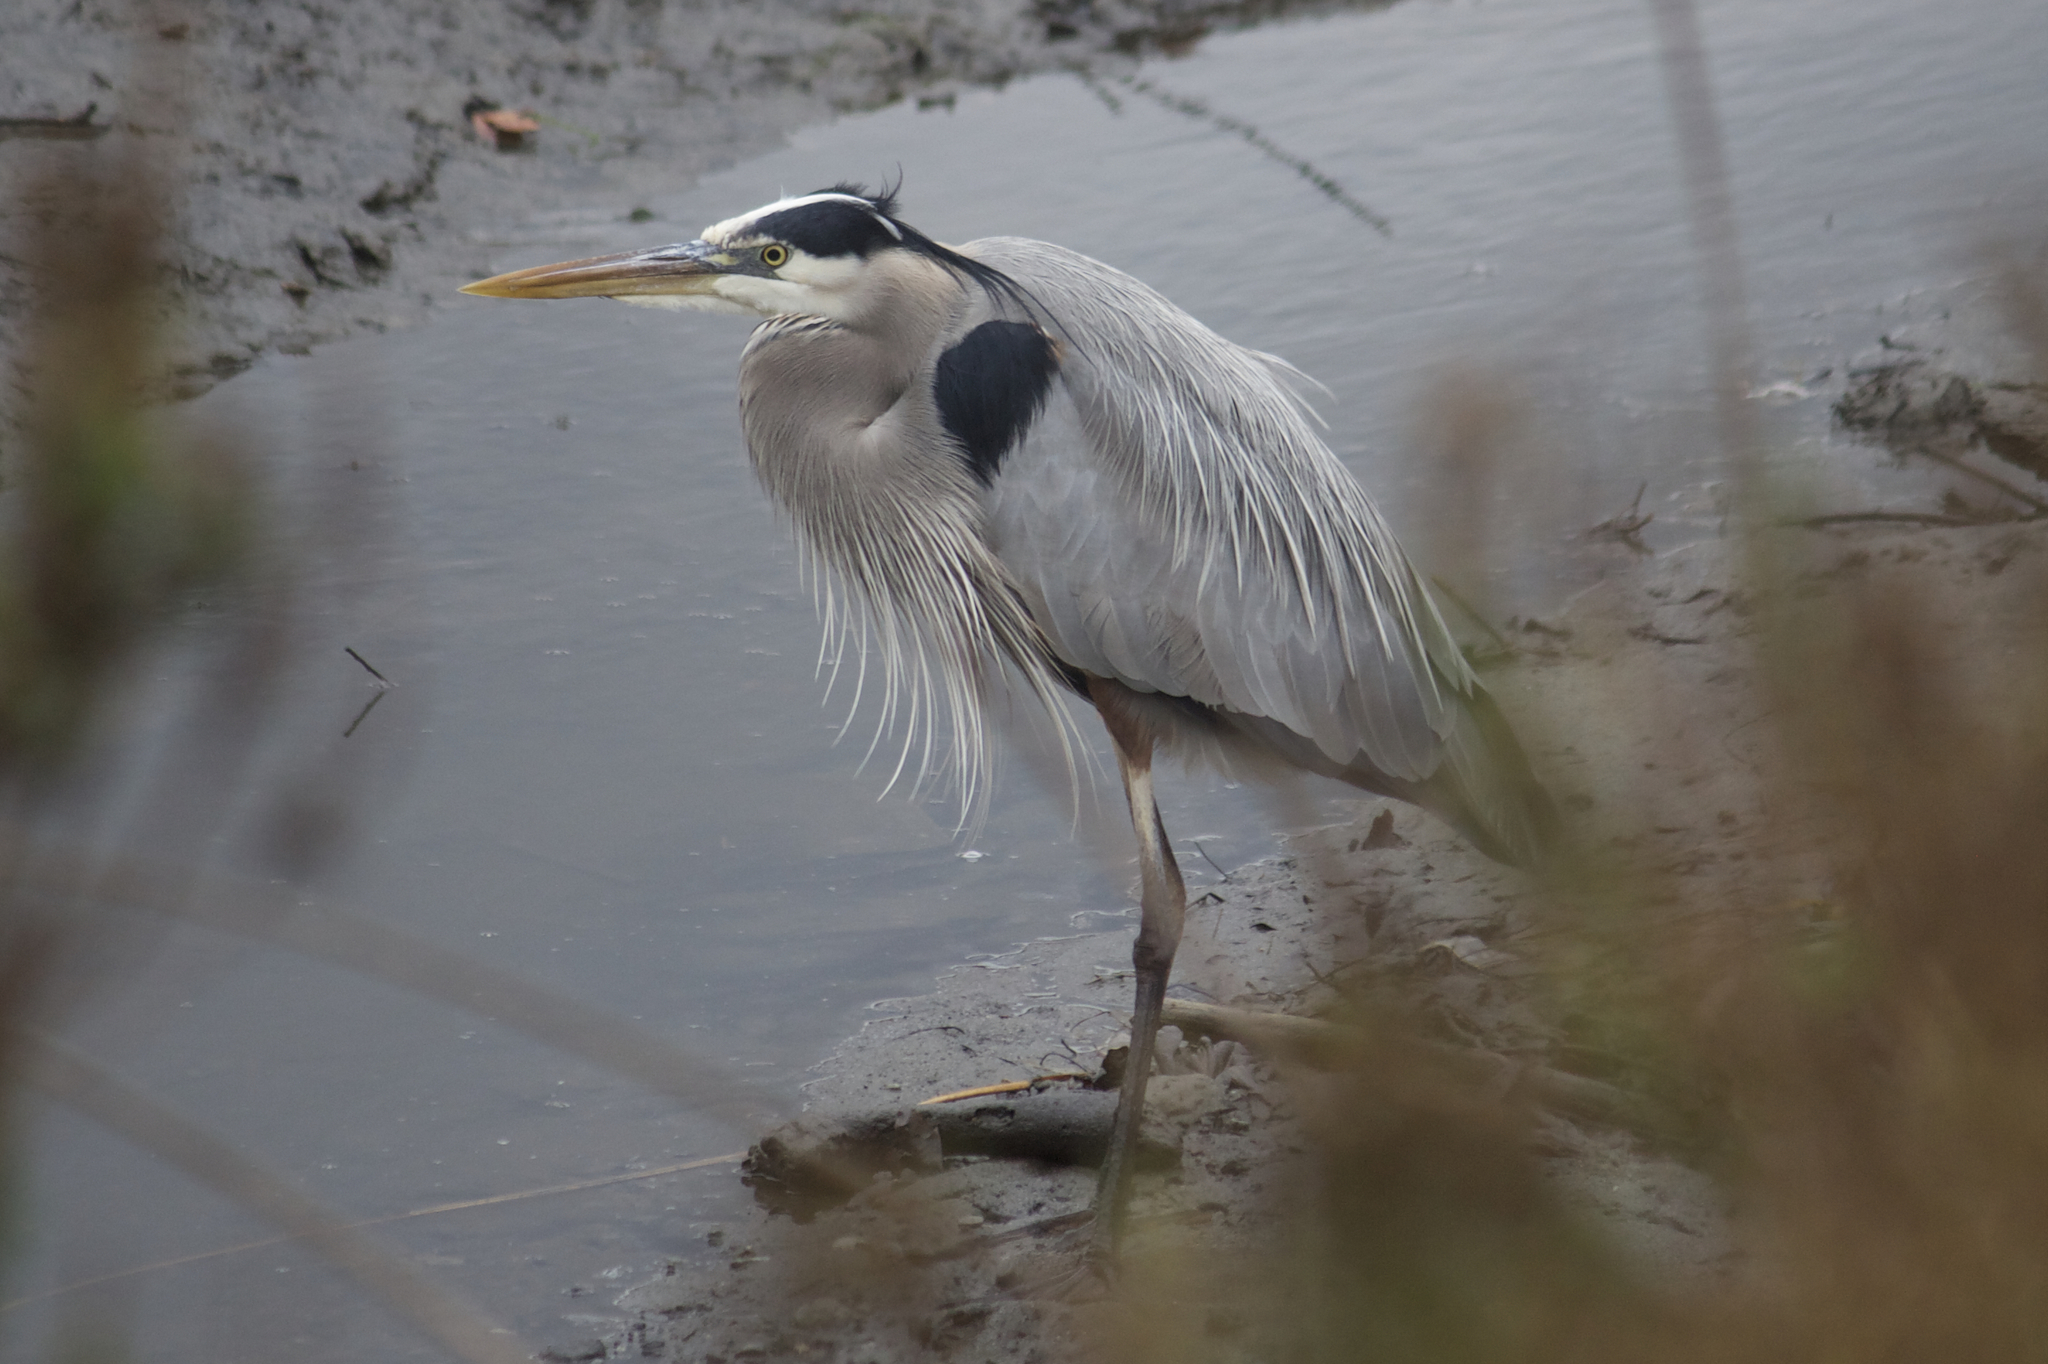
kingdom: Animalia
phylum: Chordata
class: Aves
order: Pelecaniformes
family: Ardeidae
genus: Ardea
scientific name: Ardea herodias
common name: Great blue heron
